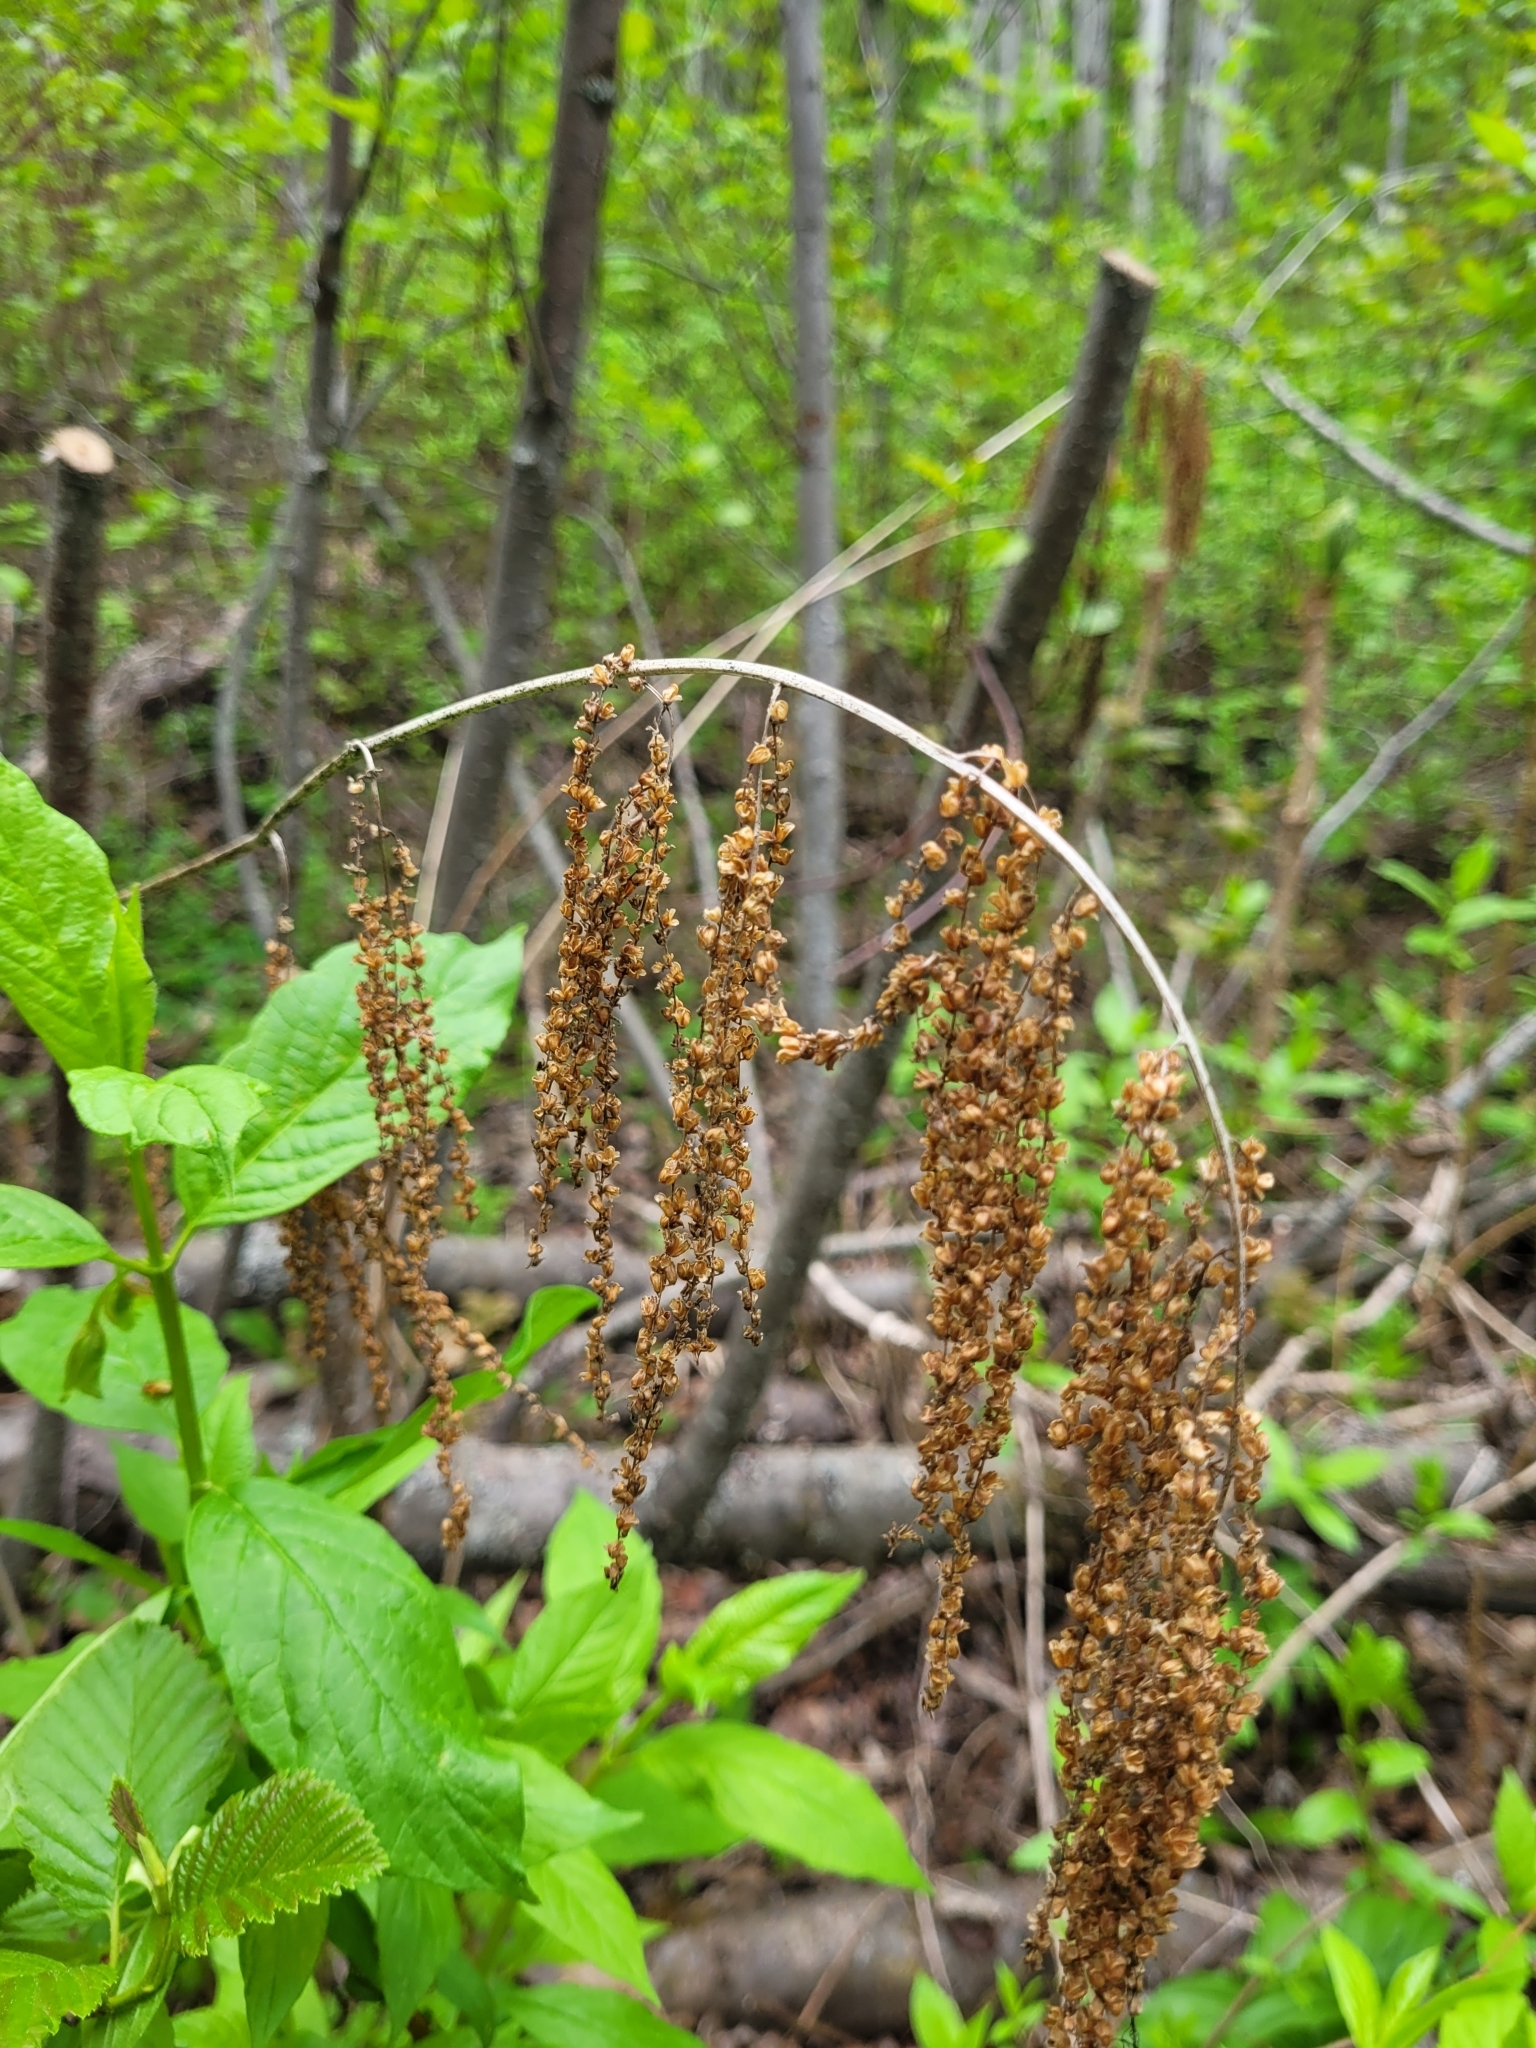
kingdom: Plantae
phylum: Tracheophyta
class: Magnoliopsida
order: Rosales
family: Rosaceae
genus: Aruncus
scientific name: Aruncus dioicus
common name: Buck's-beard
